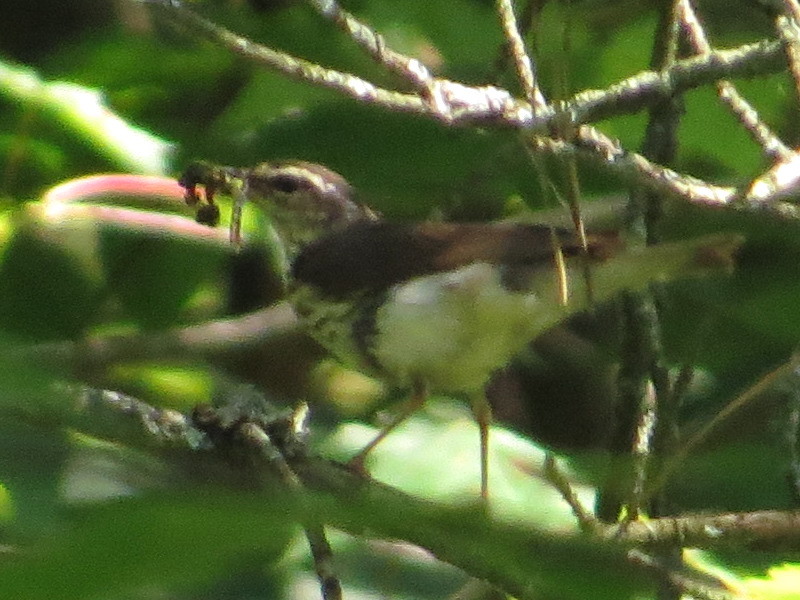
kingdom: Animalia
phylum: Chordata
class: Aves
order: Passeriformes
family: Parulidae
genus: Parkesia
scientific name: Parkesia motacilla
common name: Louisiana waterthrush
